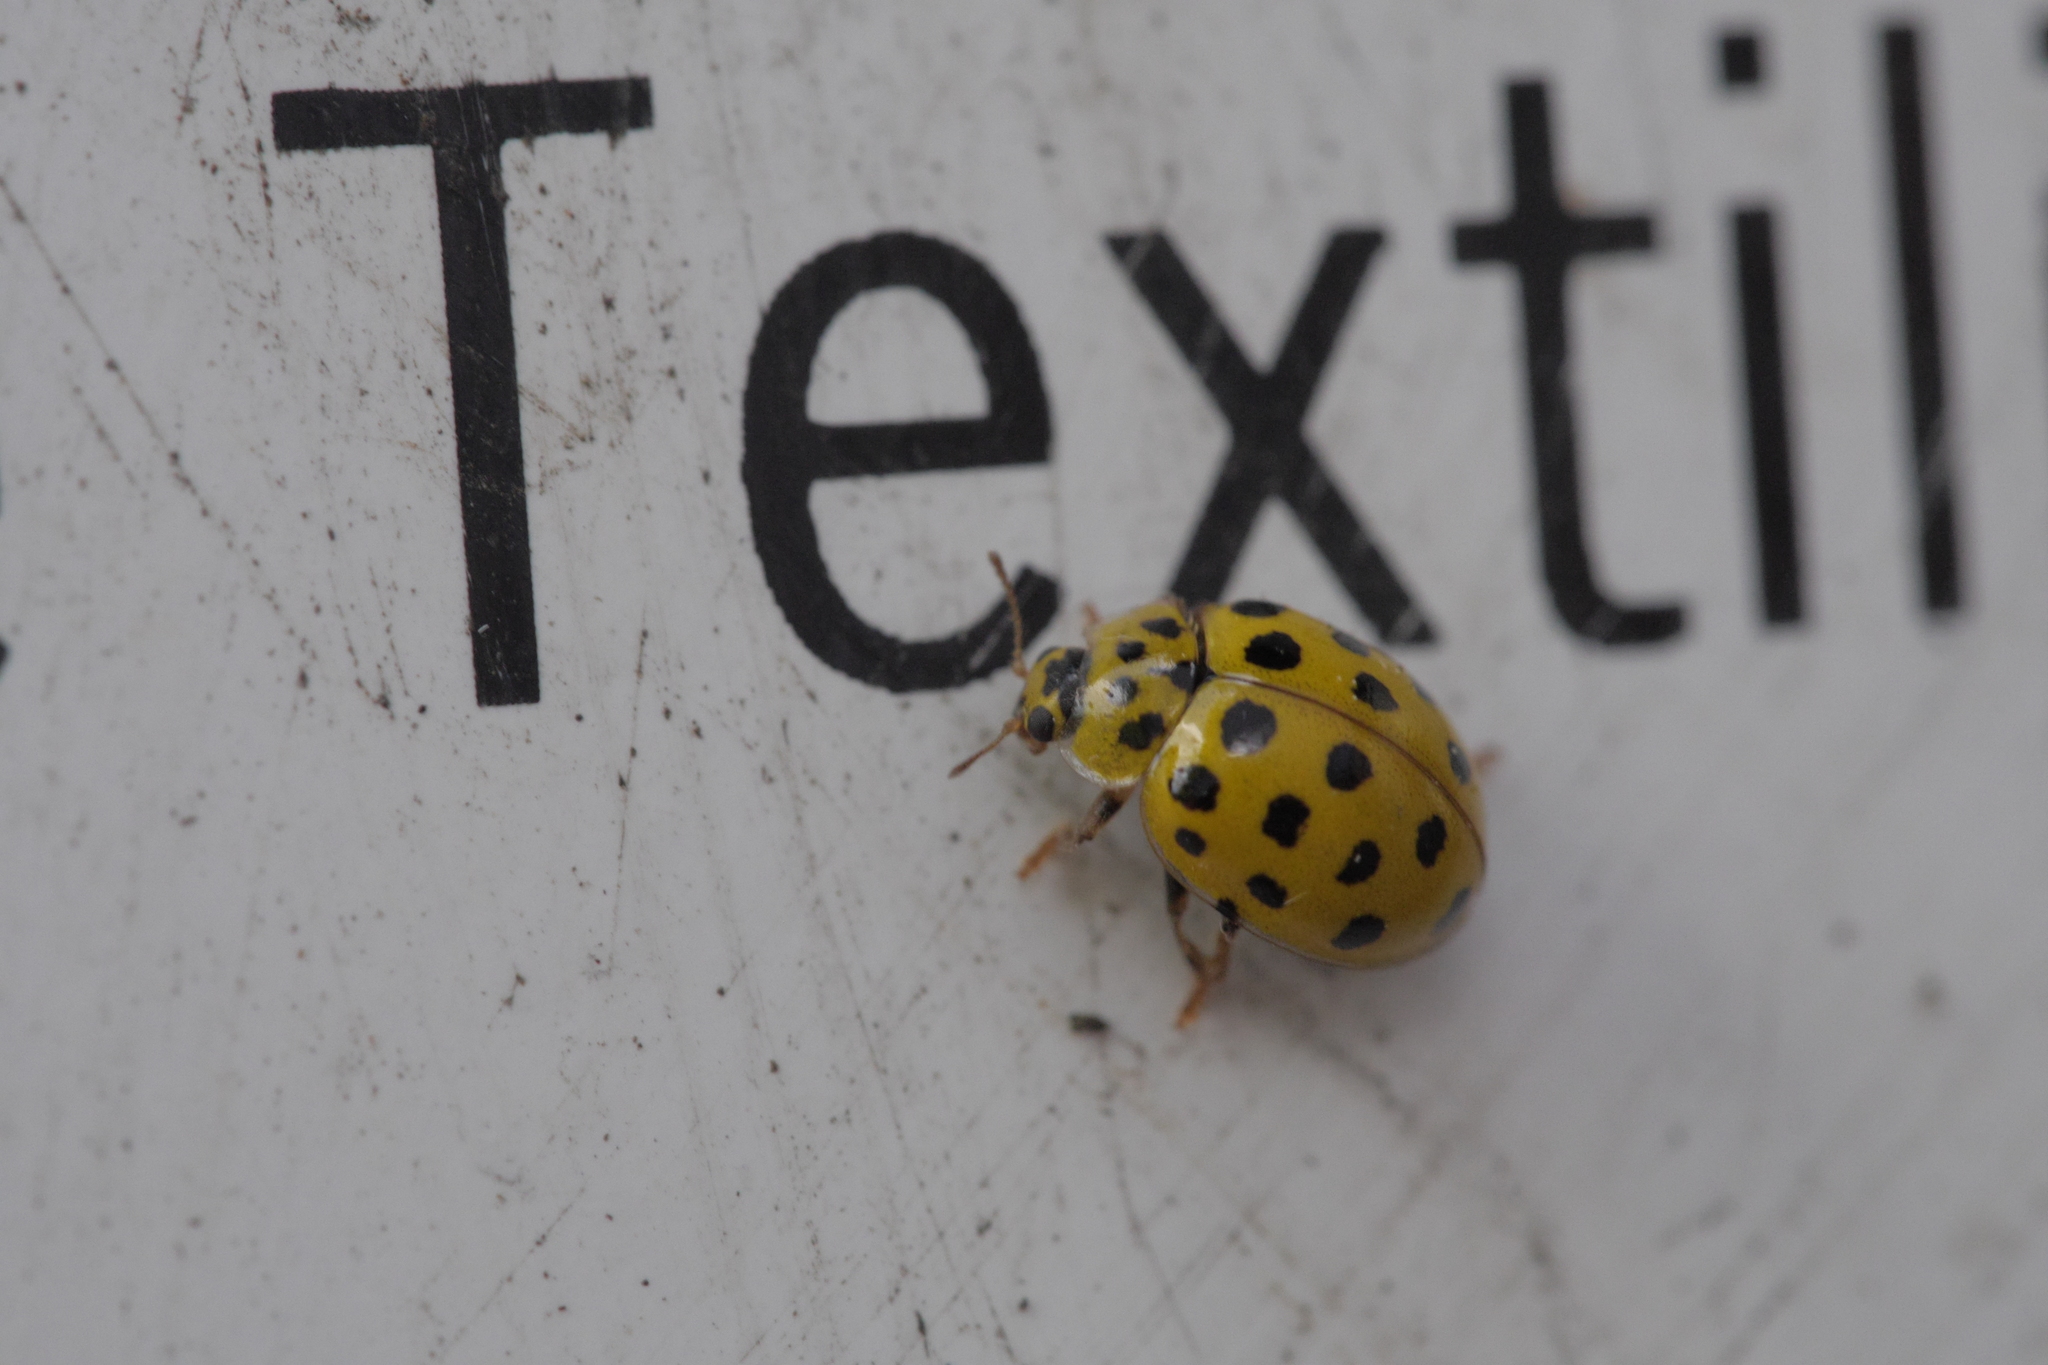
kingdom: Animalia
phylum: Arthropoda
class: Insecta
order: Coleoptera
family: Coccinellidae
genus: Psyllobora
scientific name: Psyllobora vigintiduopunctata
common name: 22-spot ladybird
